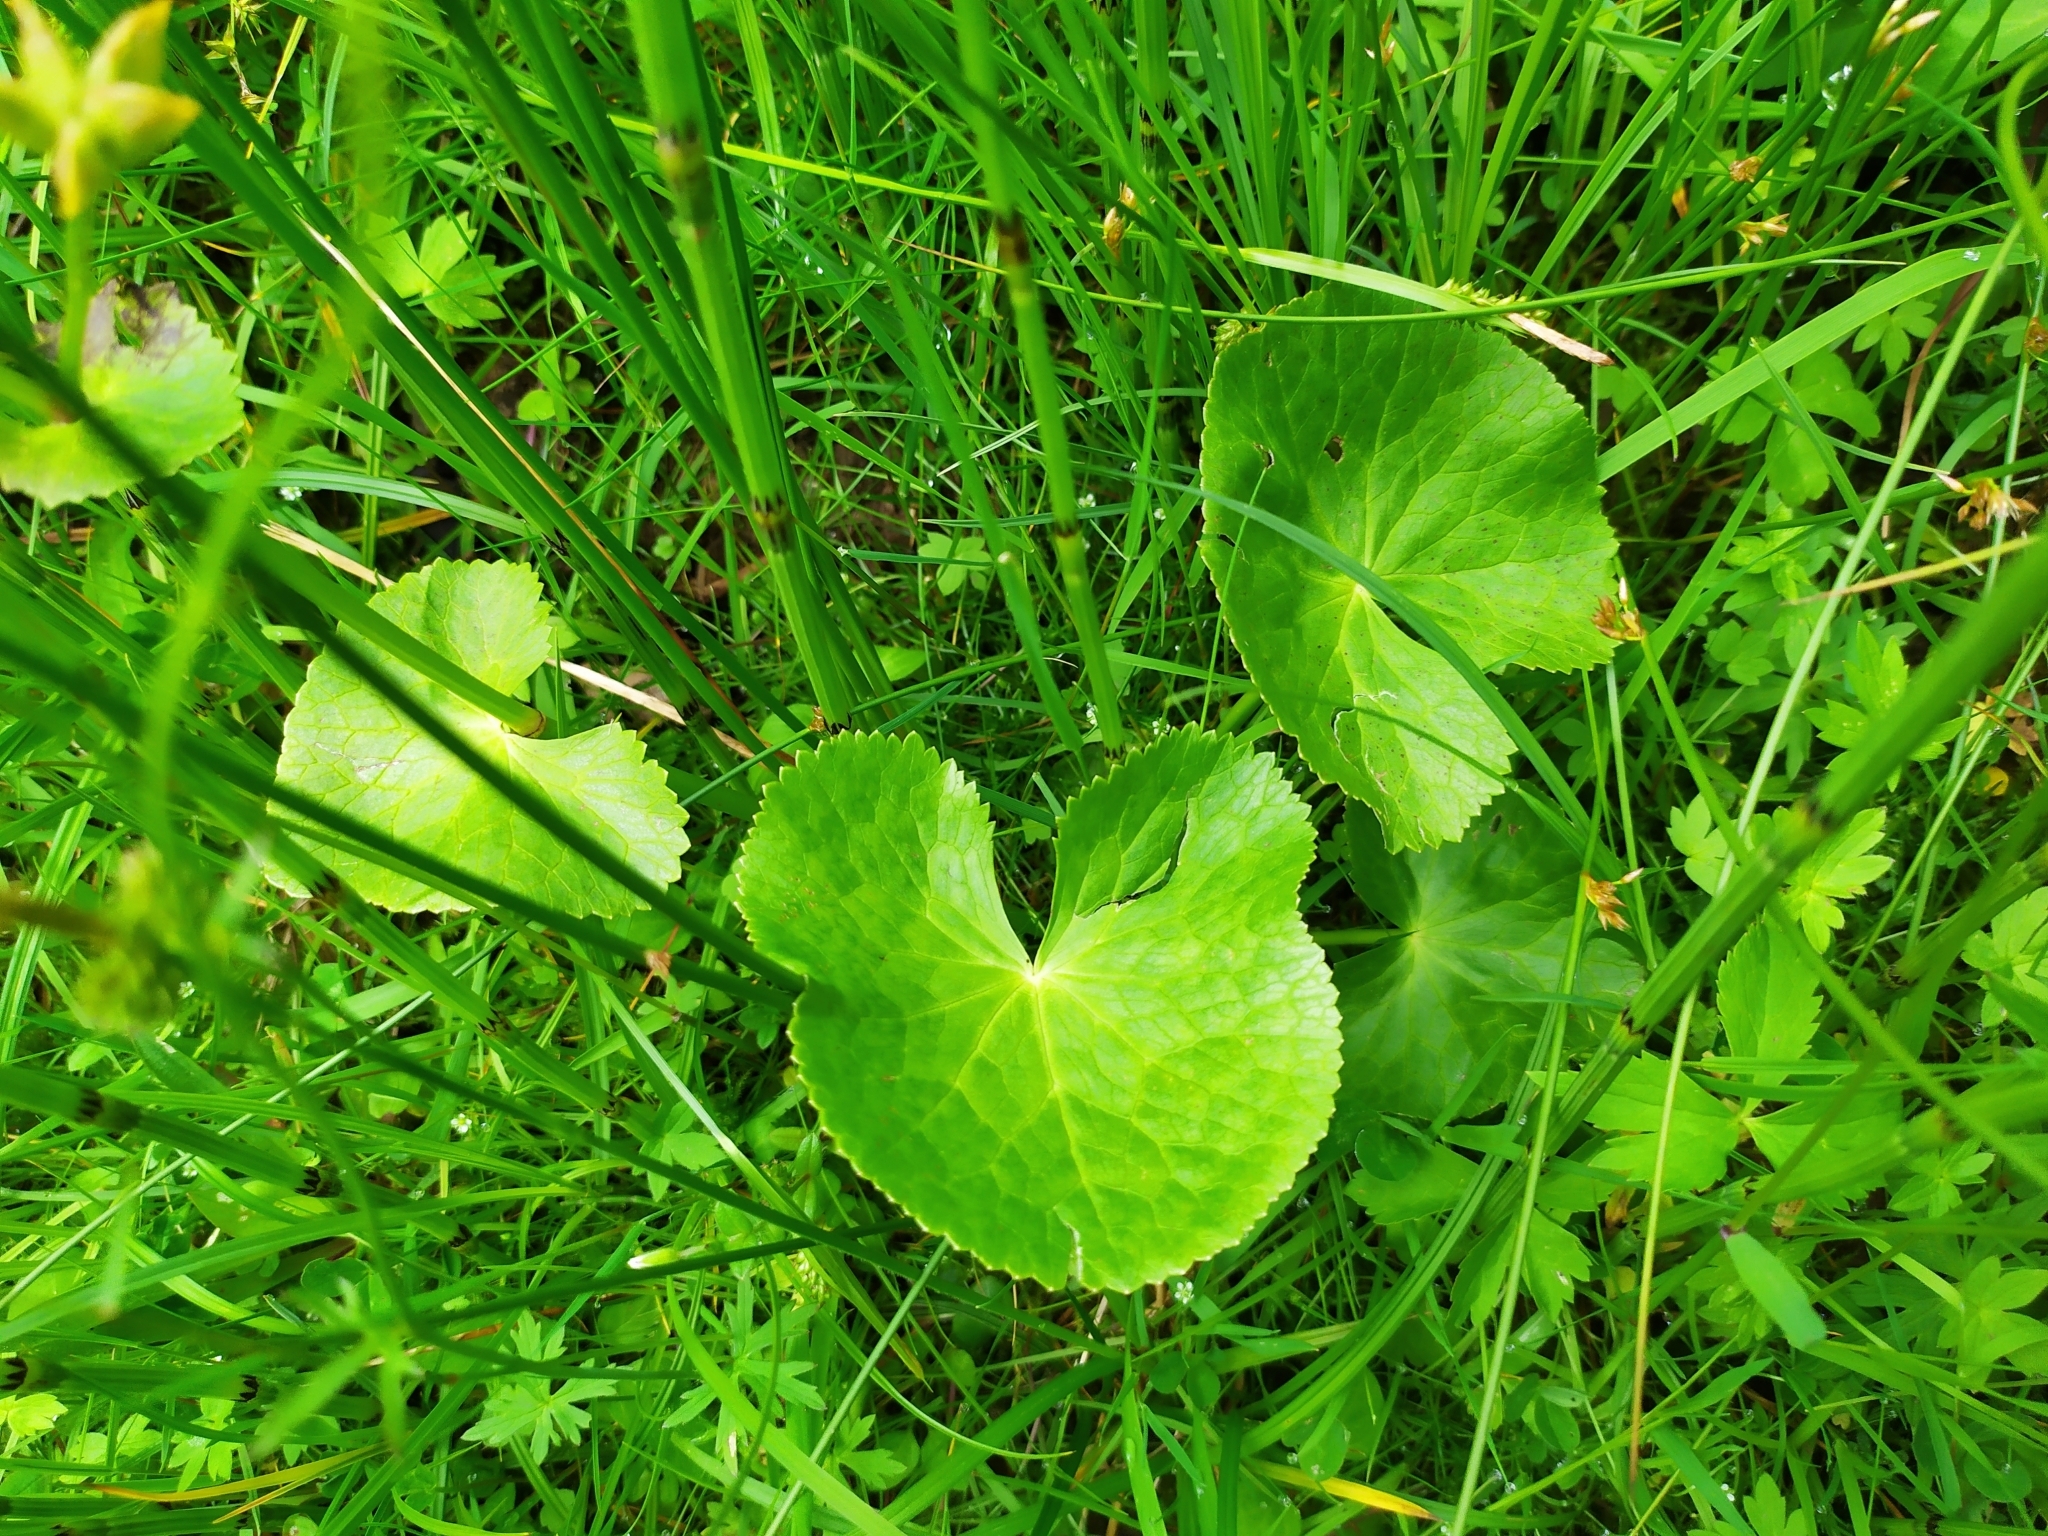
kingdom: Plantae
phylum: Tracheophyta
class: Magnoliopsida
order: Ranunculales
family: Ranunculaceae
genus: Caltha
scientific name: Caltha palustris
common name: Marsh marigold
